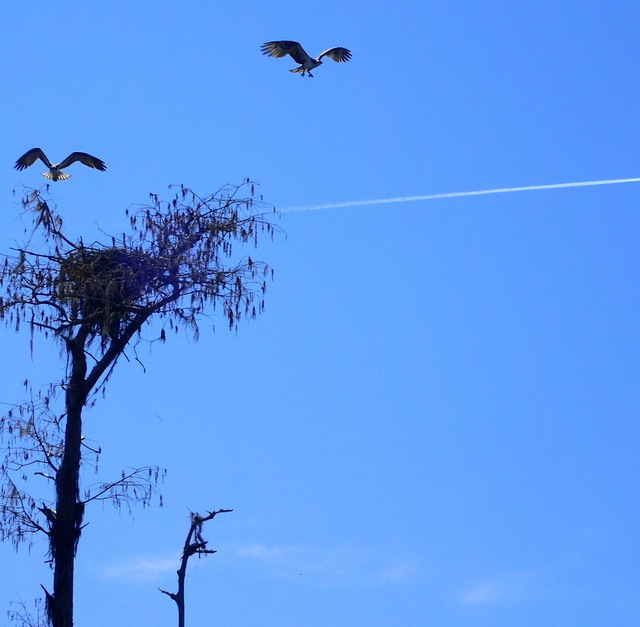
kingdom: Animalia
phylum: Chordata
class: Aves
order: Accipitriformes
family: Pandionidae
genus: Pandion
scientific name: Pandion haliaetus
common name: Osprey
